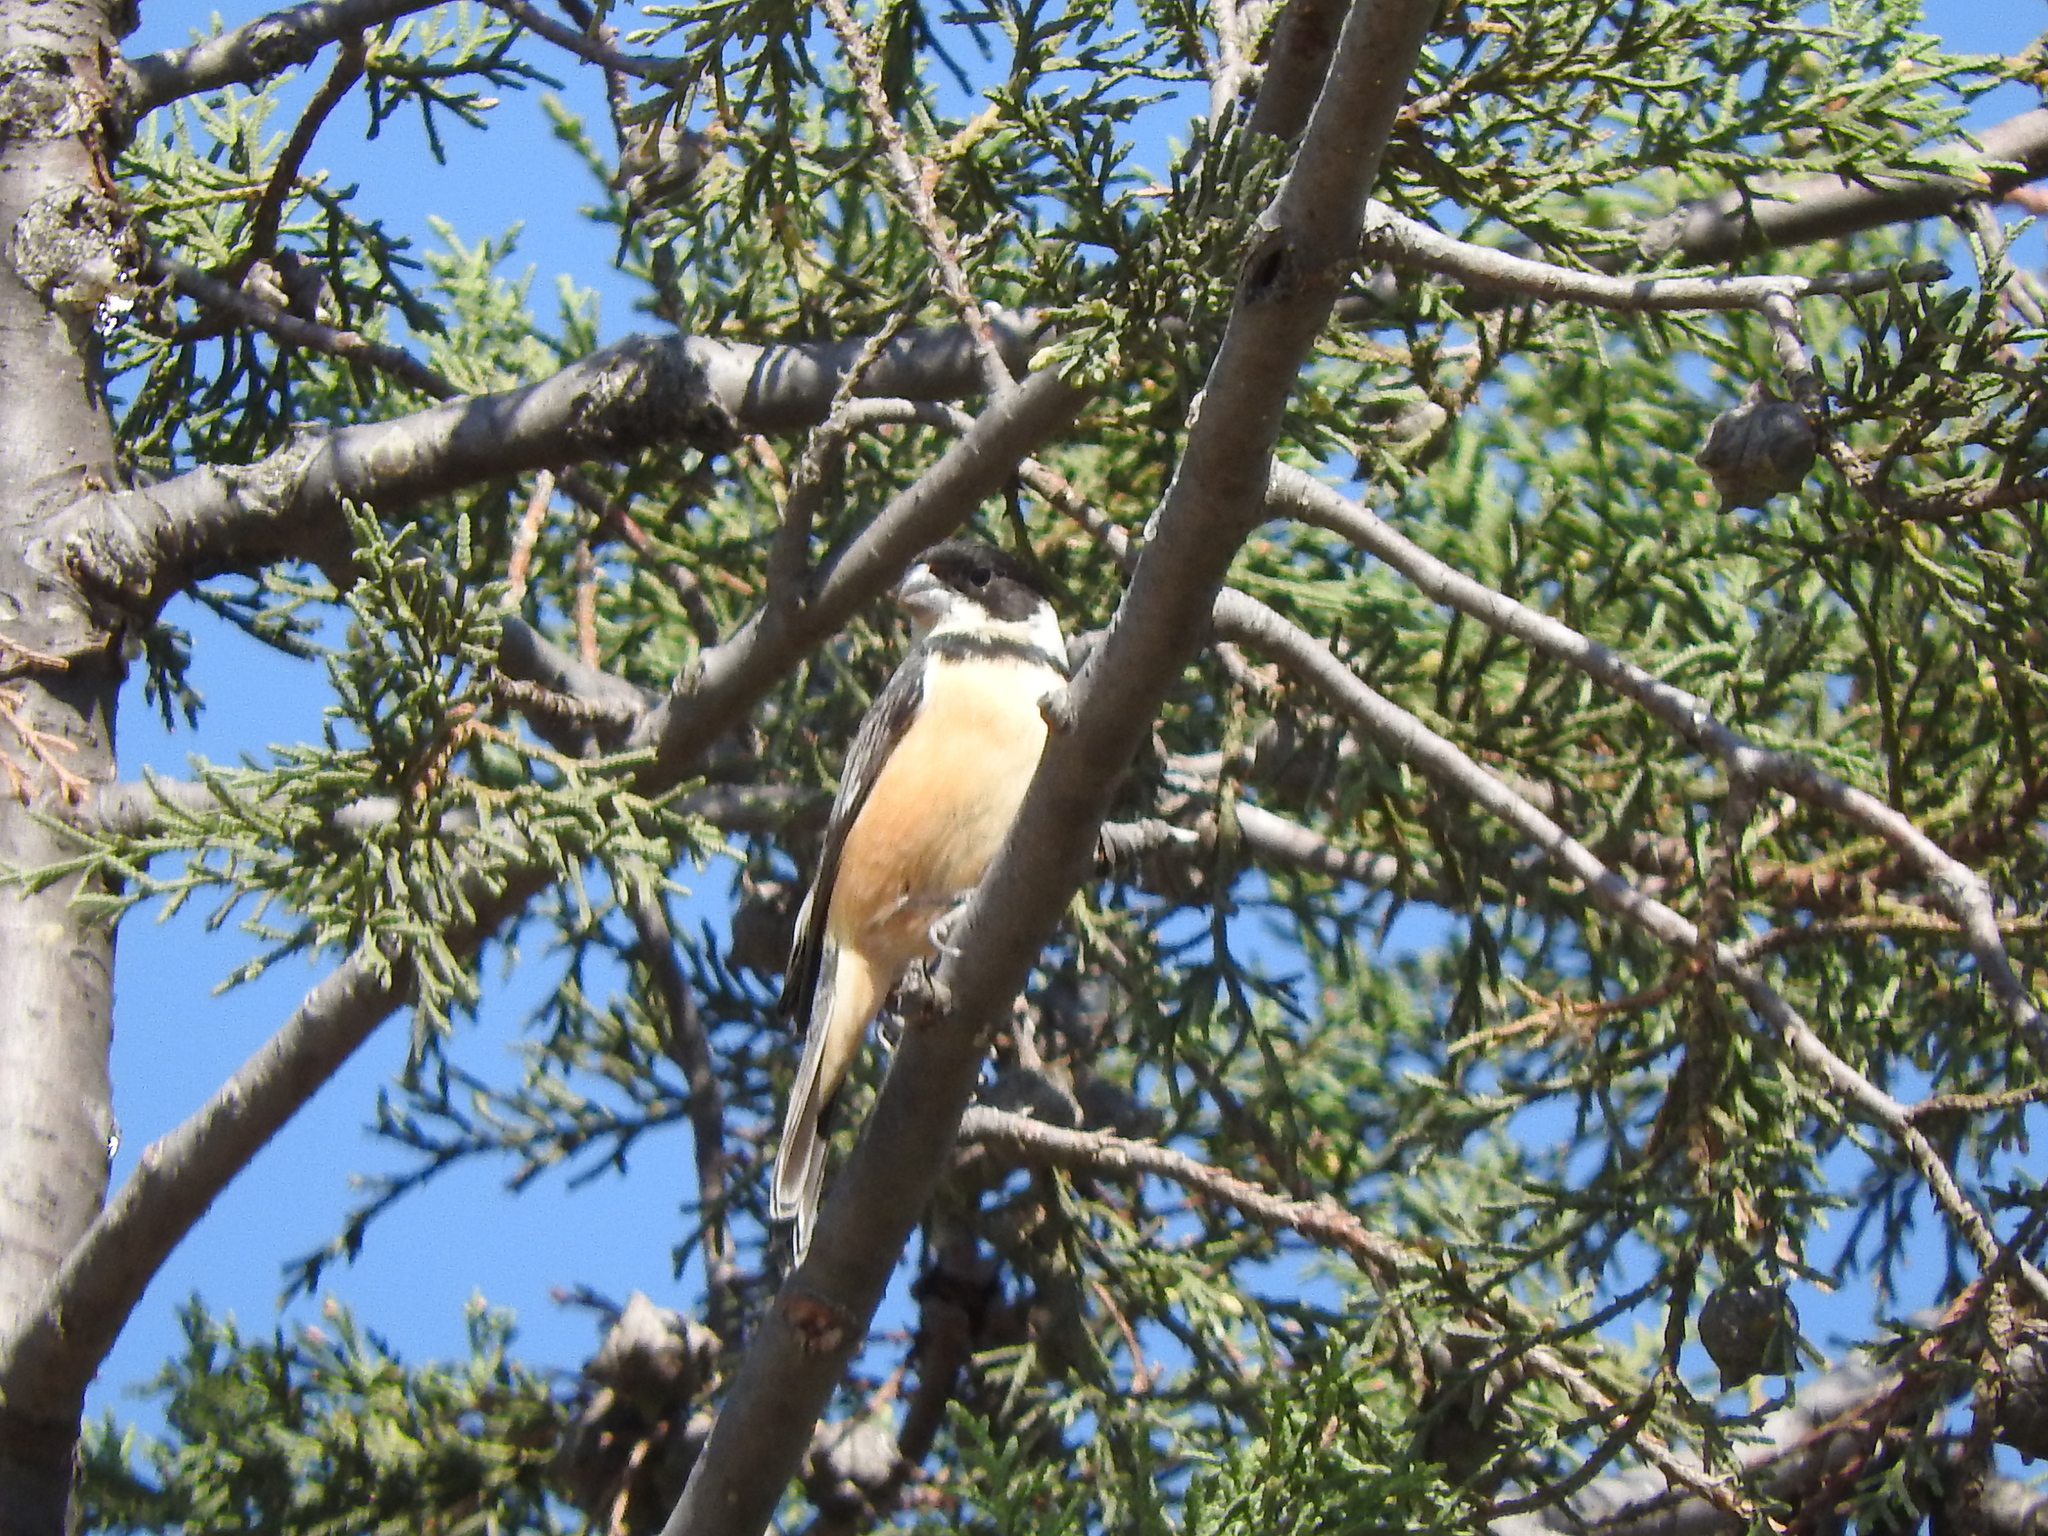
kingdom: Animalia
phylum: Chordata
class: Aves
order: Passeriformes
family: Thraupidae
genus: Sporophila
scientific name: Sporophila torqueola
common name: White-collared seedeater
